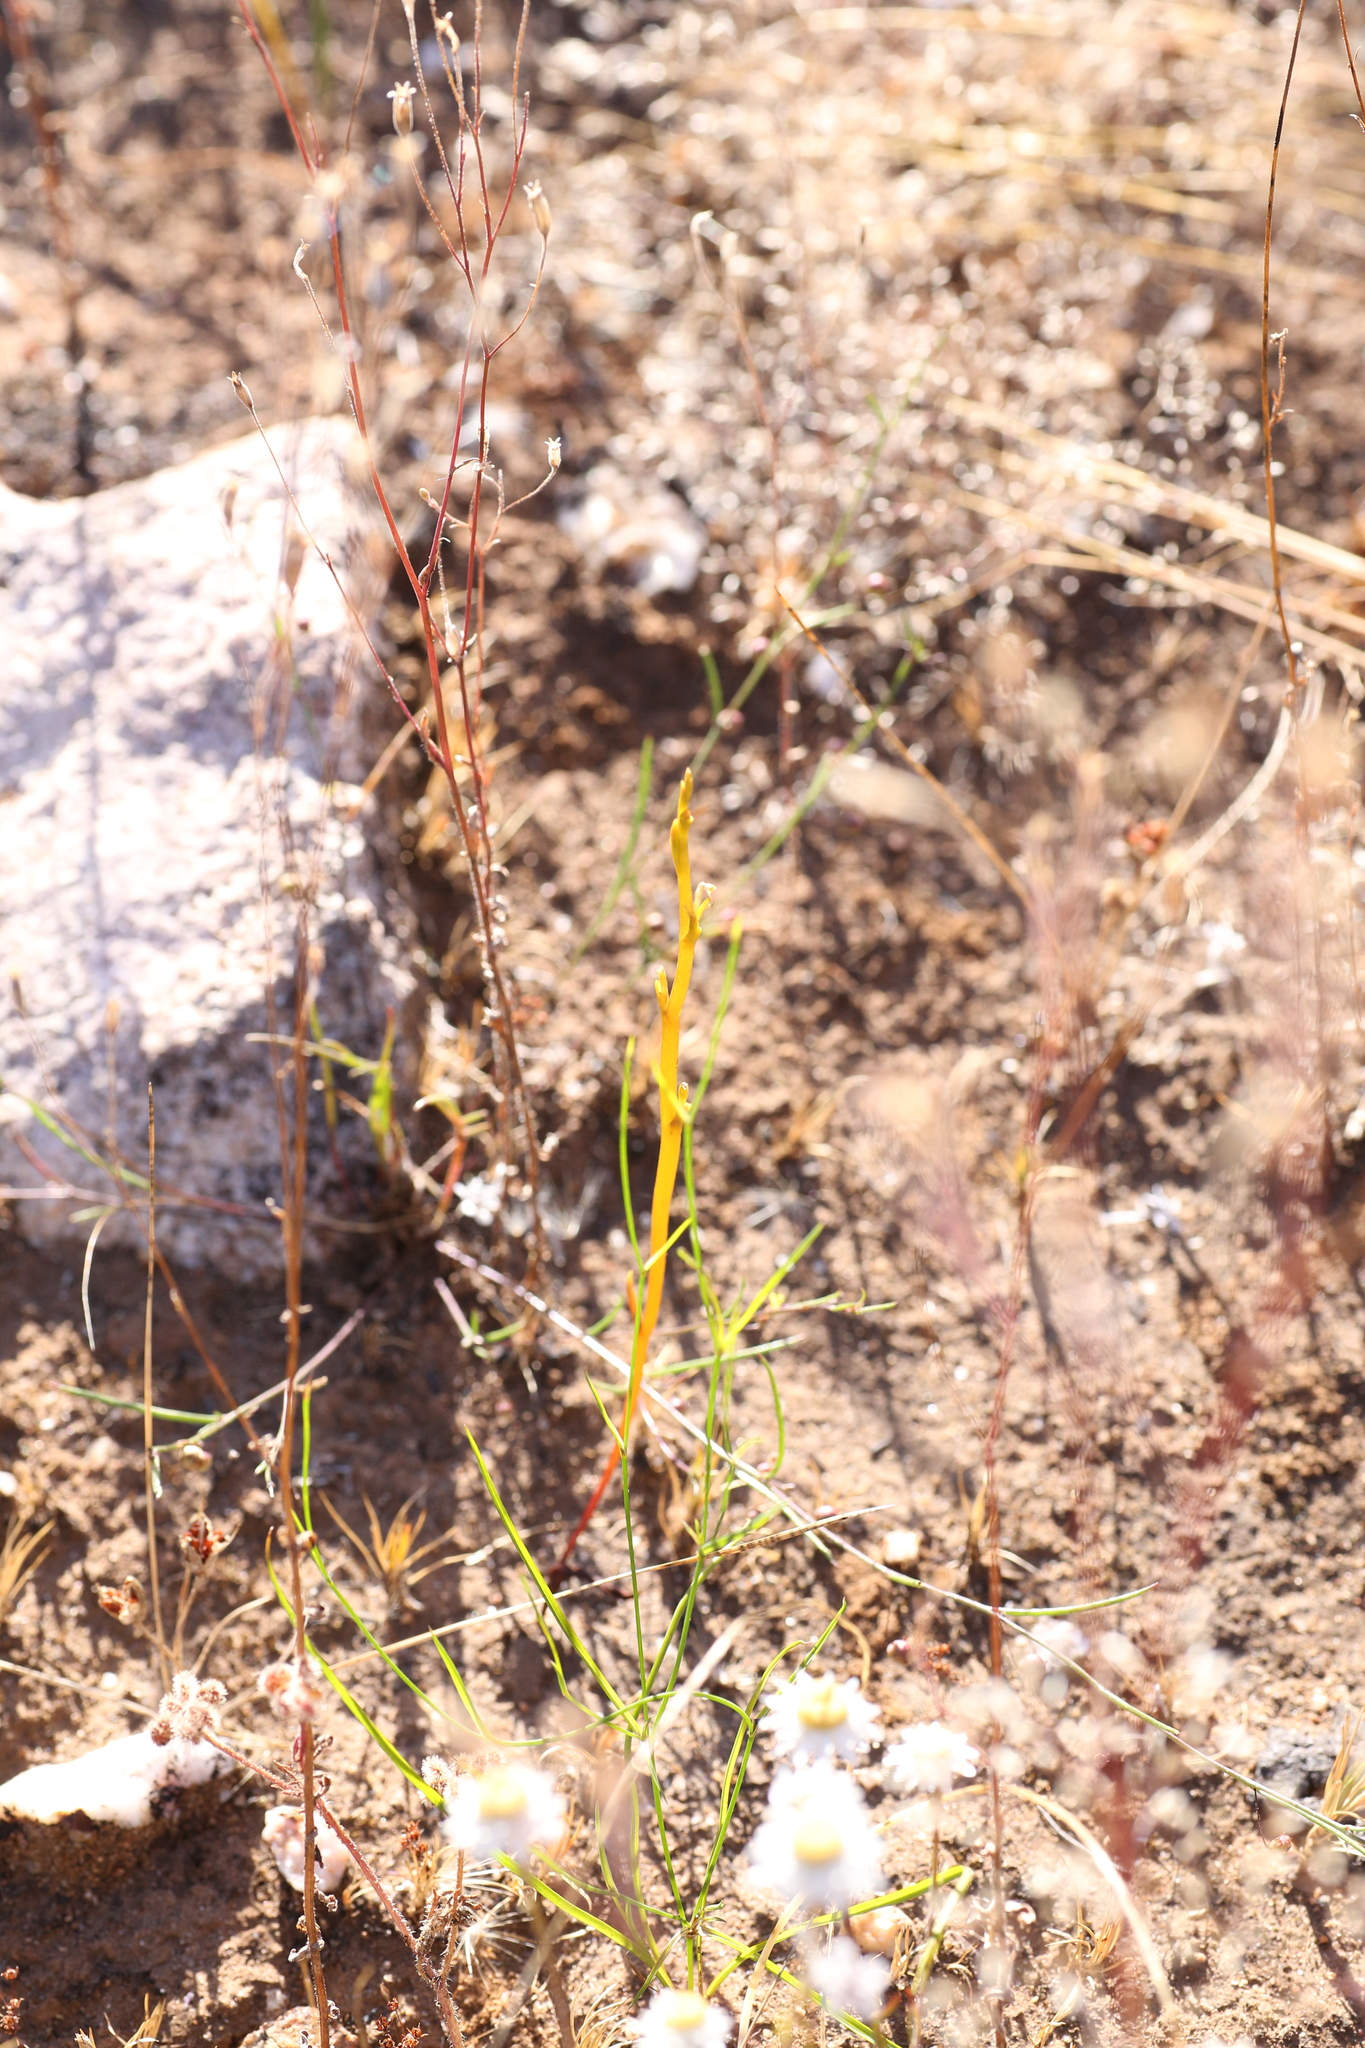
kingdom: Plantae
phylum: Tracheophyta
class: Liliopsida
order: Asparagales
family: Orchidaceae
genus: Spiculaea
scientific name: Spiculaea ciliata
